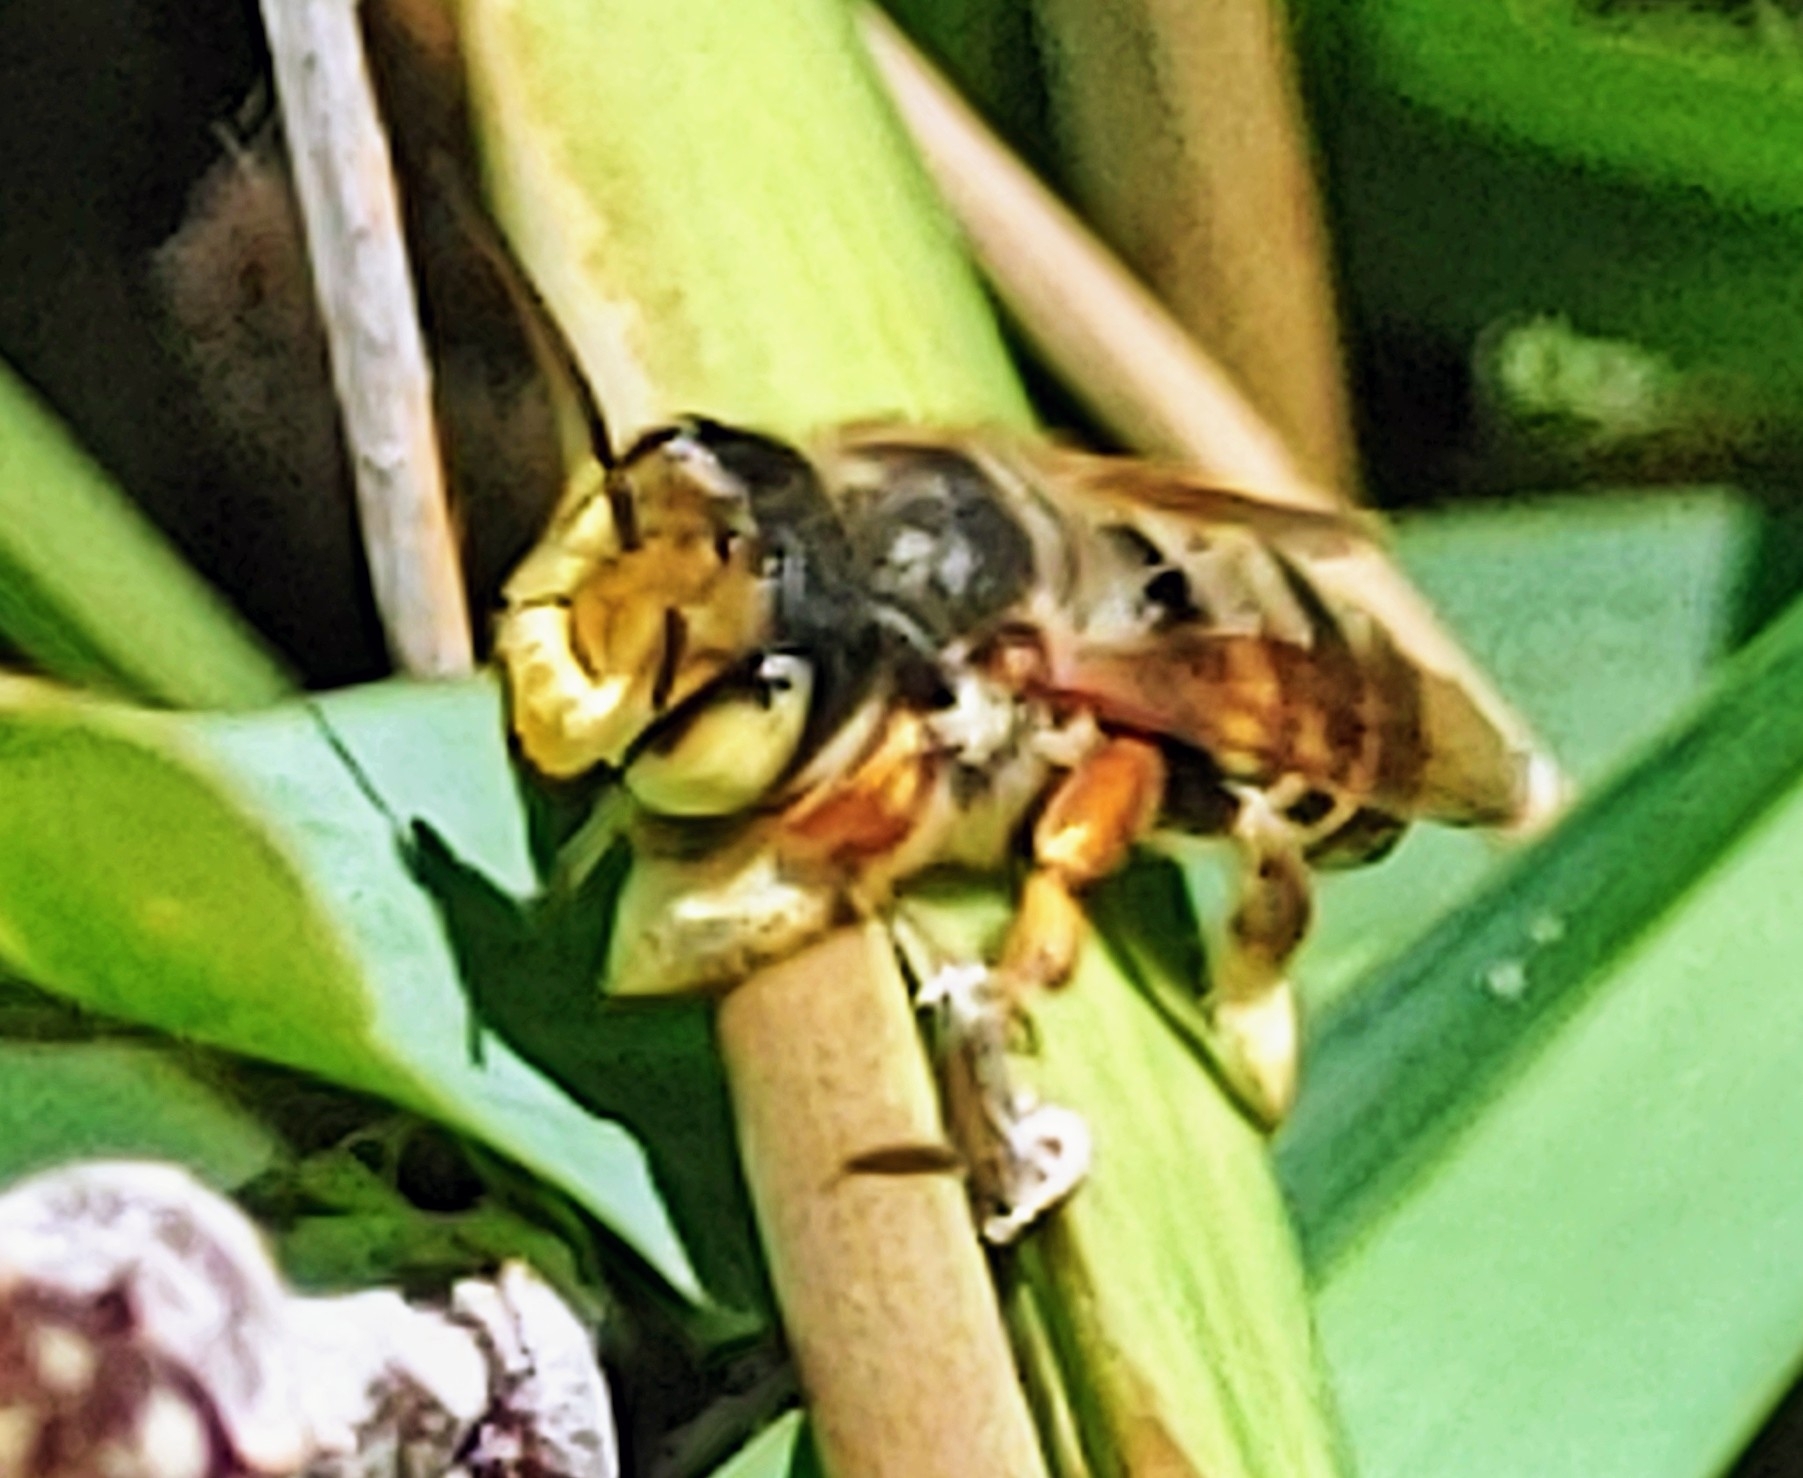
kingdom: Animalia
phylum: Arthropoda
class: Insecta
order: Hymenoptera
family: Megachilidae
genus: Megachile
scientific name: Megachile albitarsis
